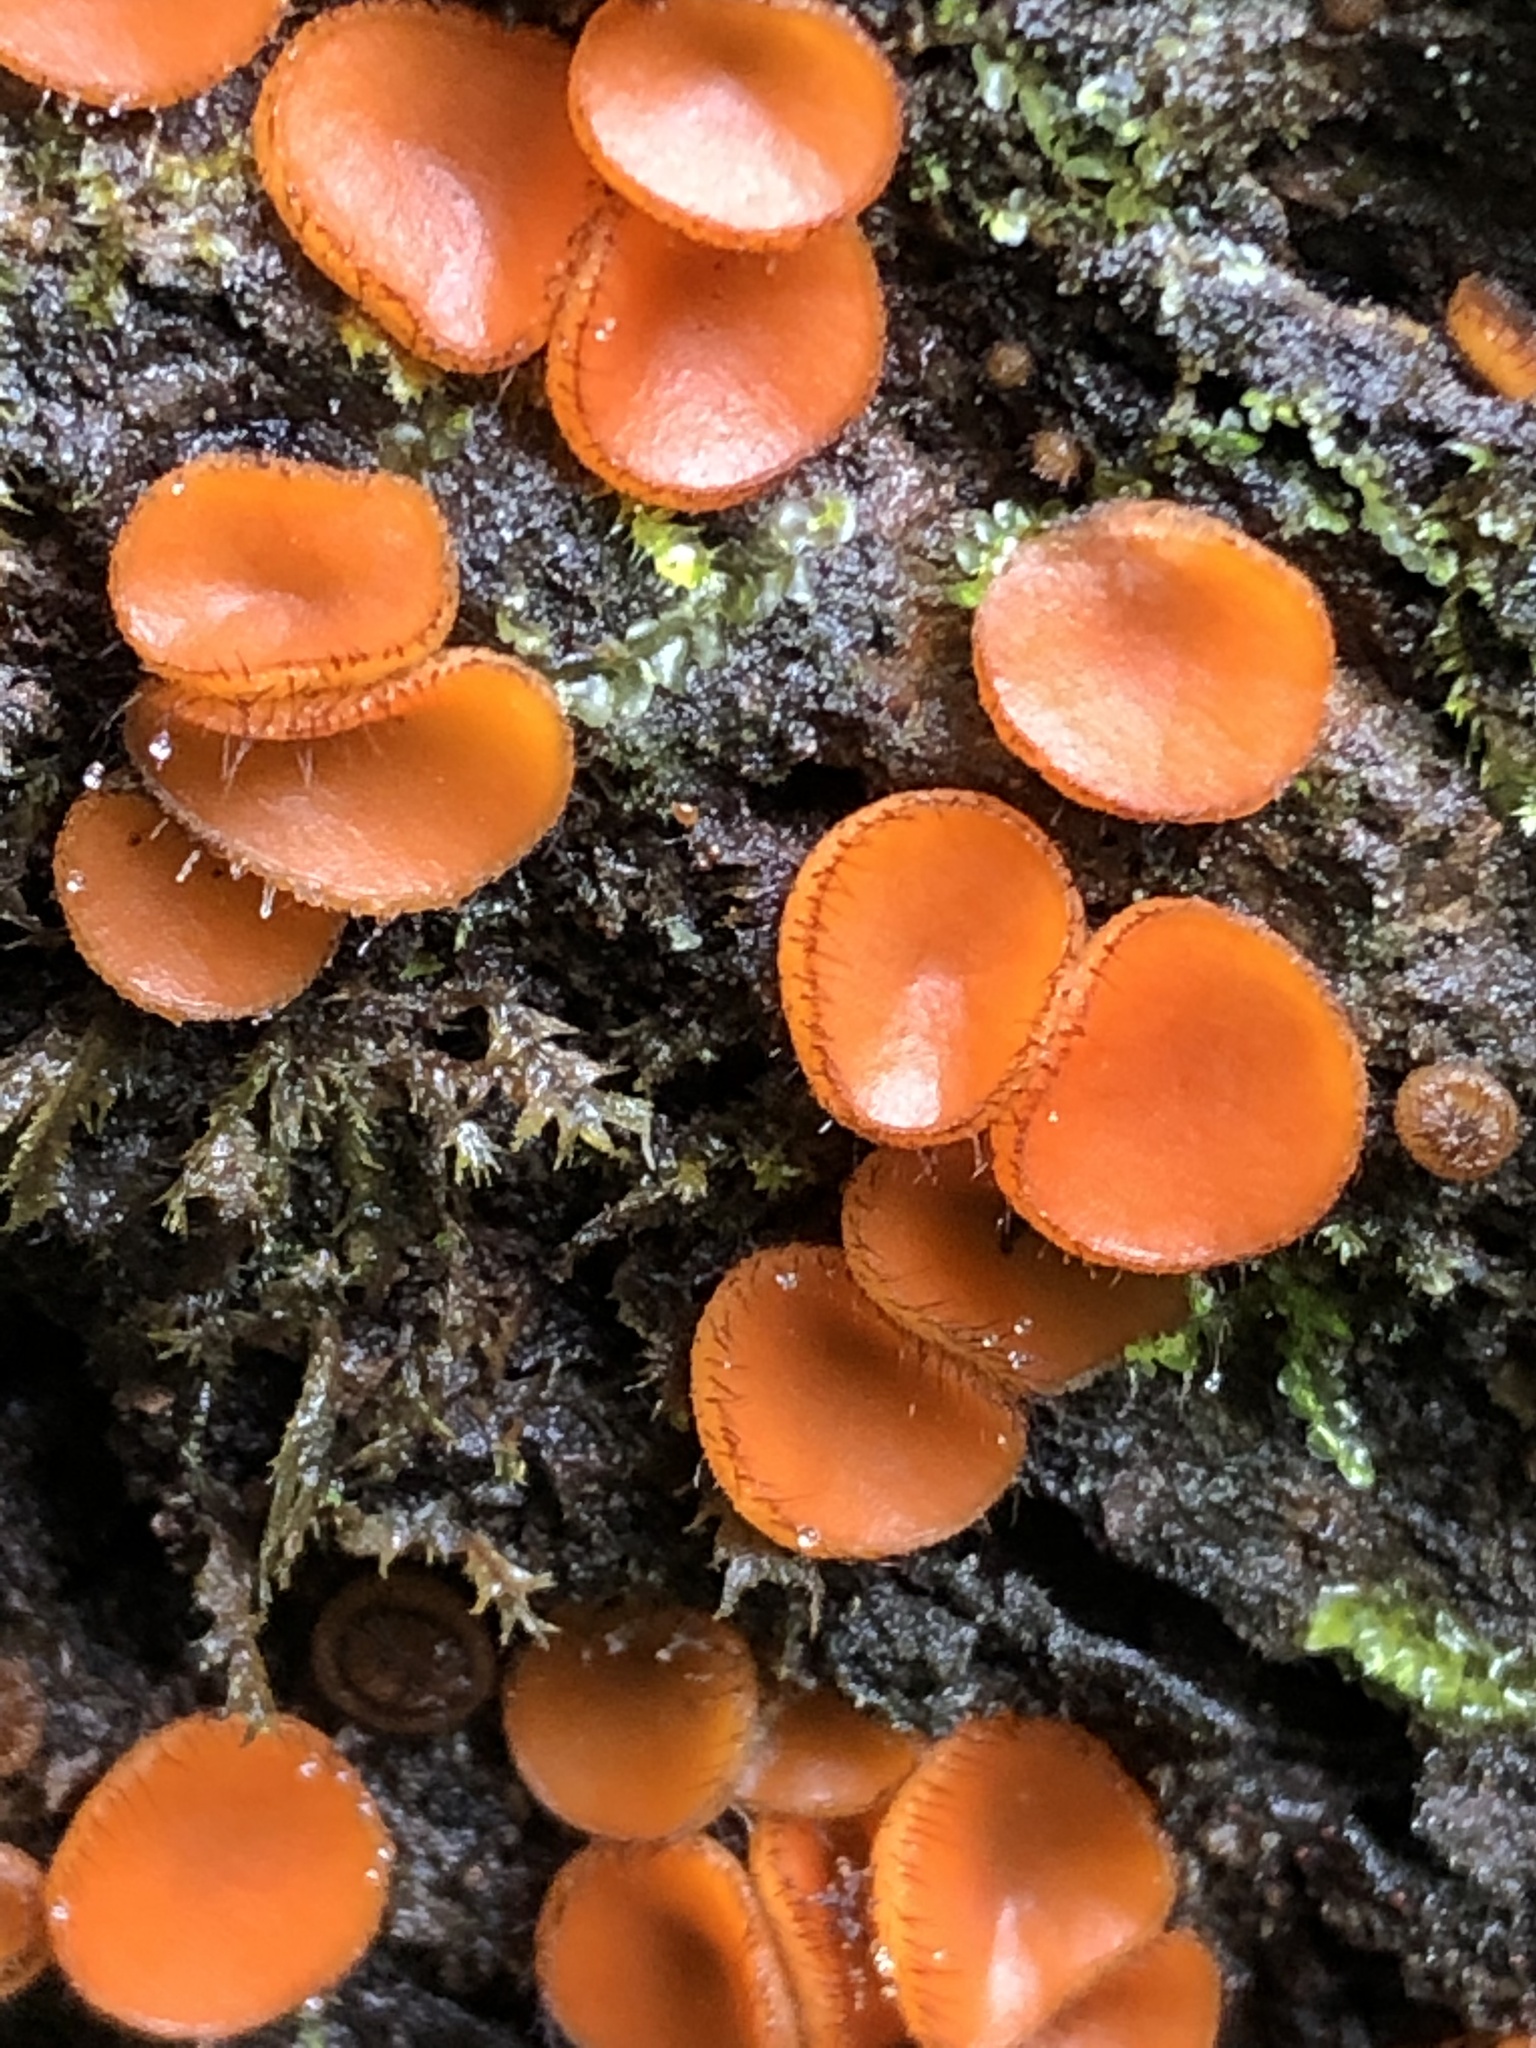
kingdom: Fungi
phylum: Ascomycota
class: Pezizomycetes
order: Pezizales
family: Pyronemataceae
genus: Scutellinia
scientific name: Scutellinia
